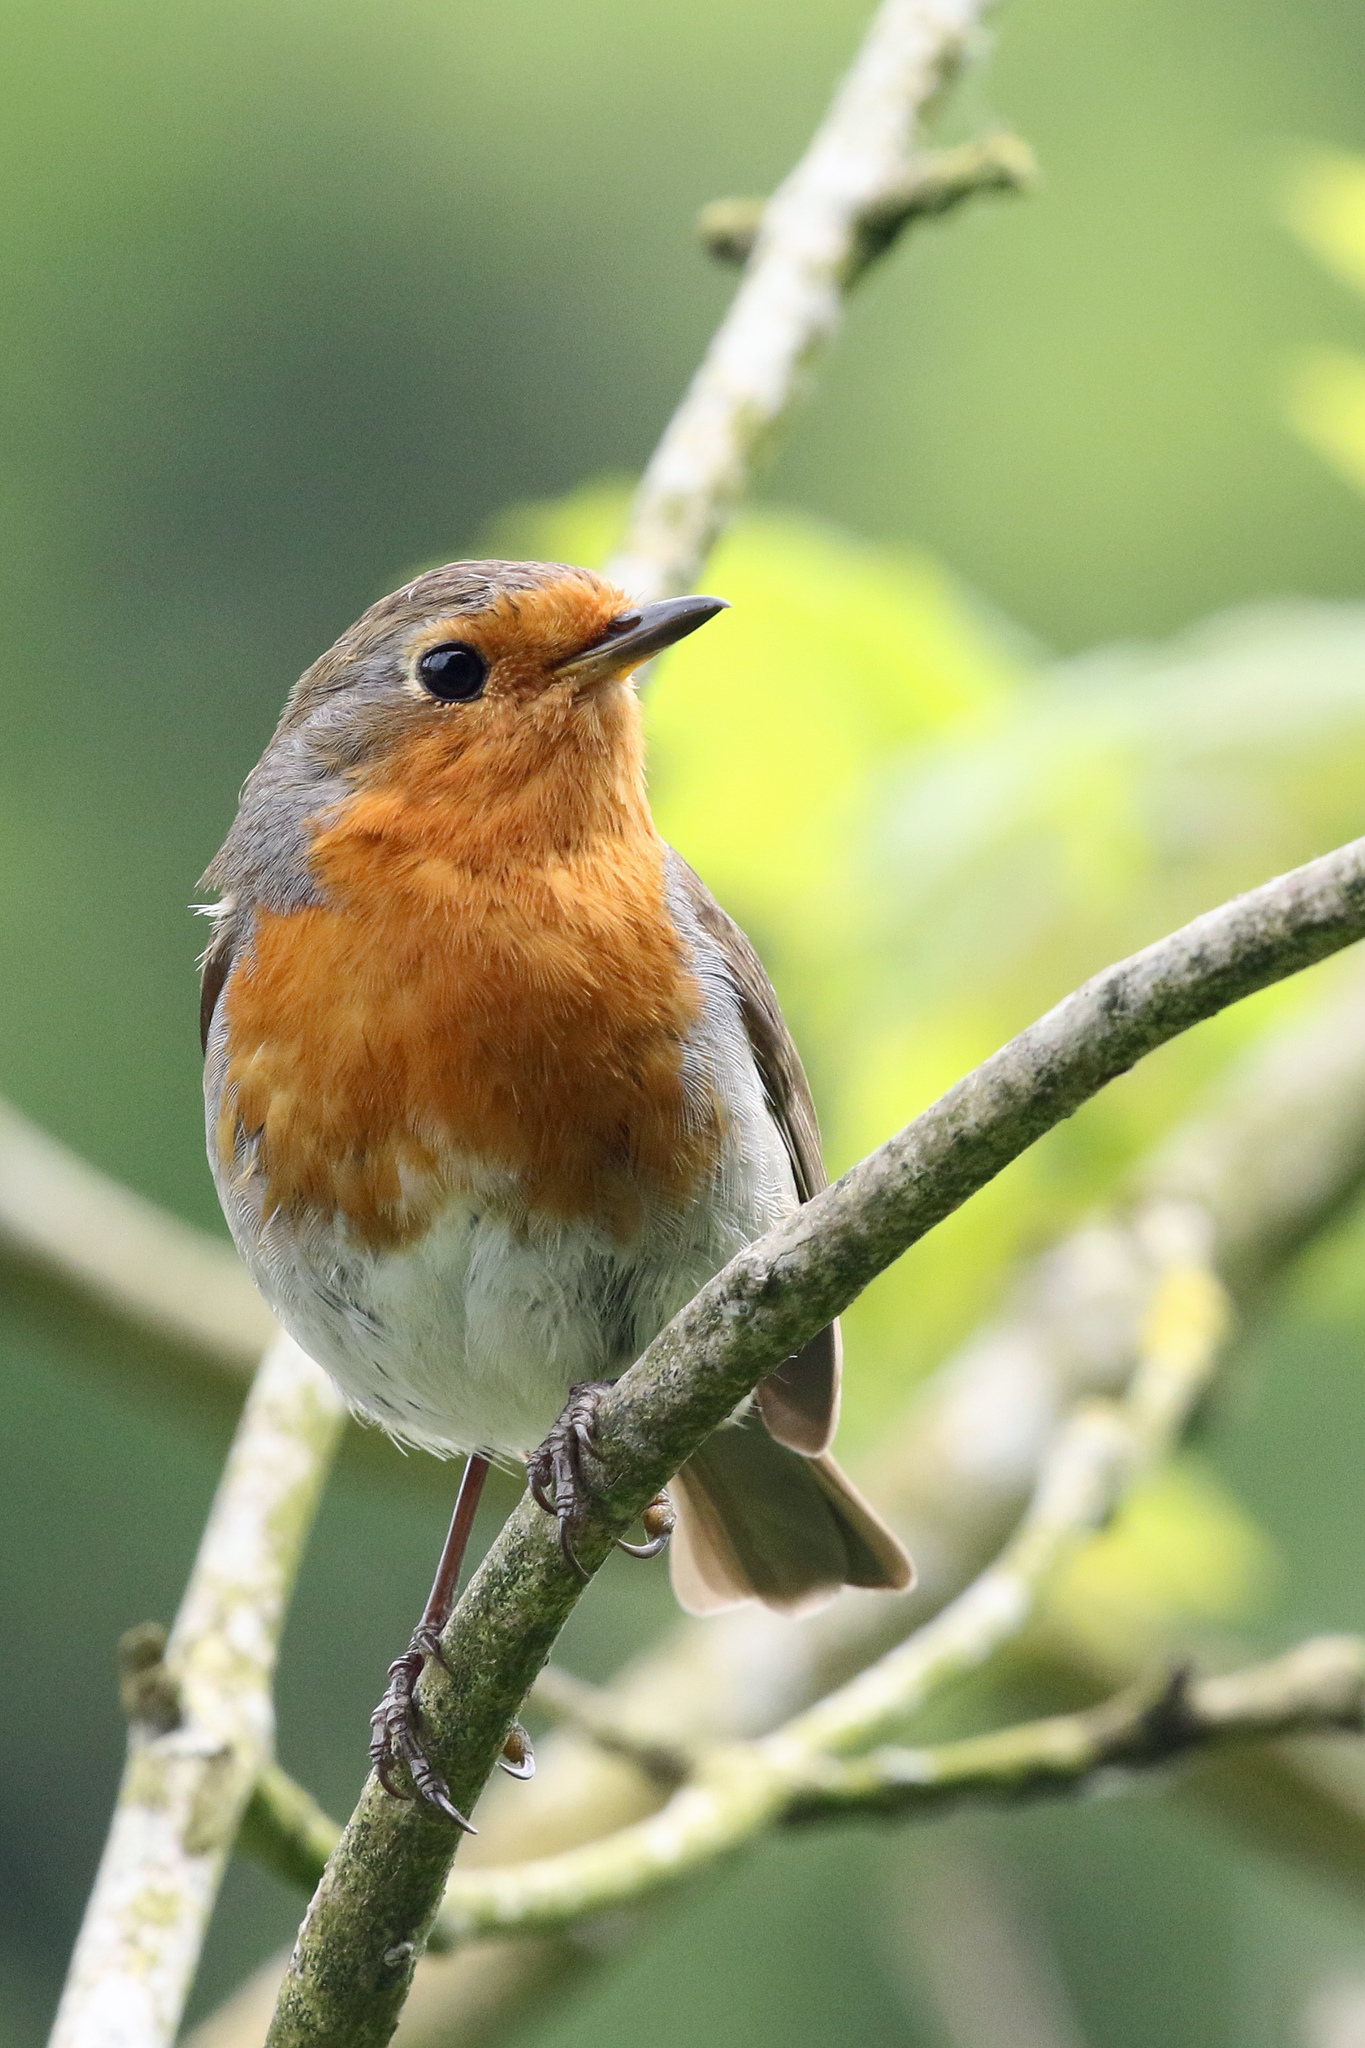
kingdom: Animalia
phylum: Chordata
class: Aves
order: Passeriformes
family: Muscicapidae
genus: Erithacus
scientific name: Erithacus rubecula
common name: European robin
